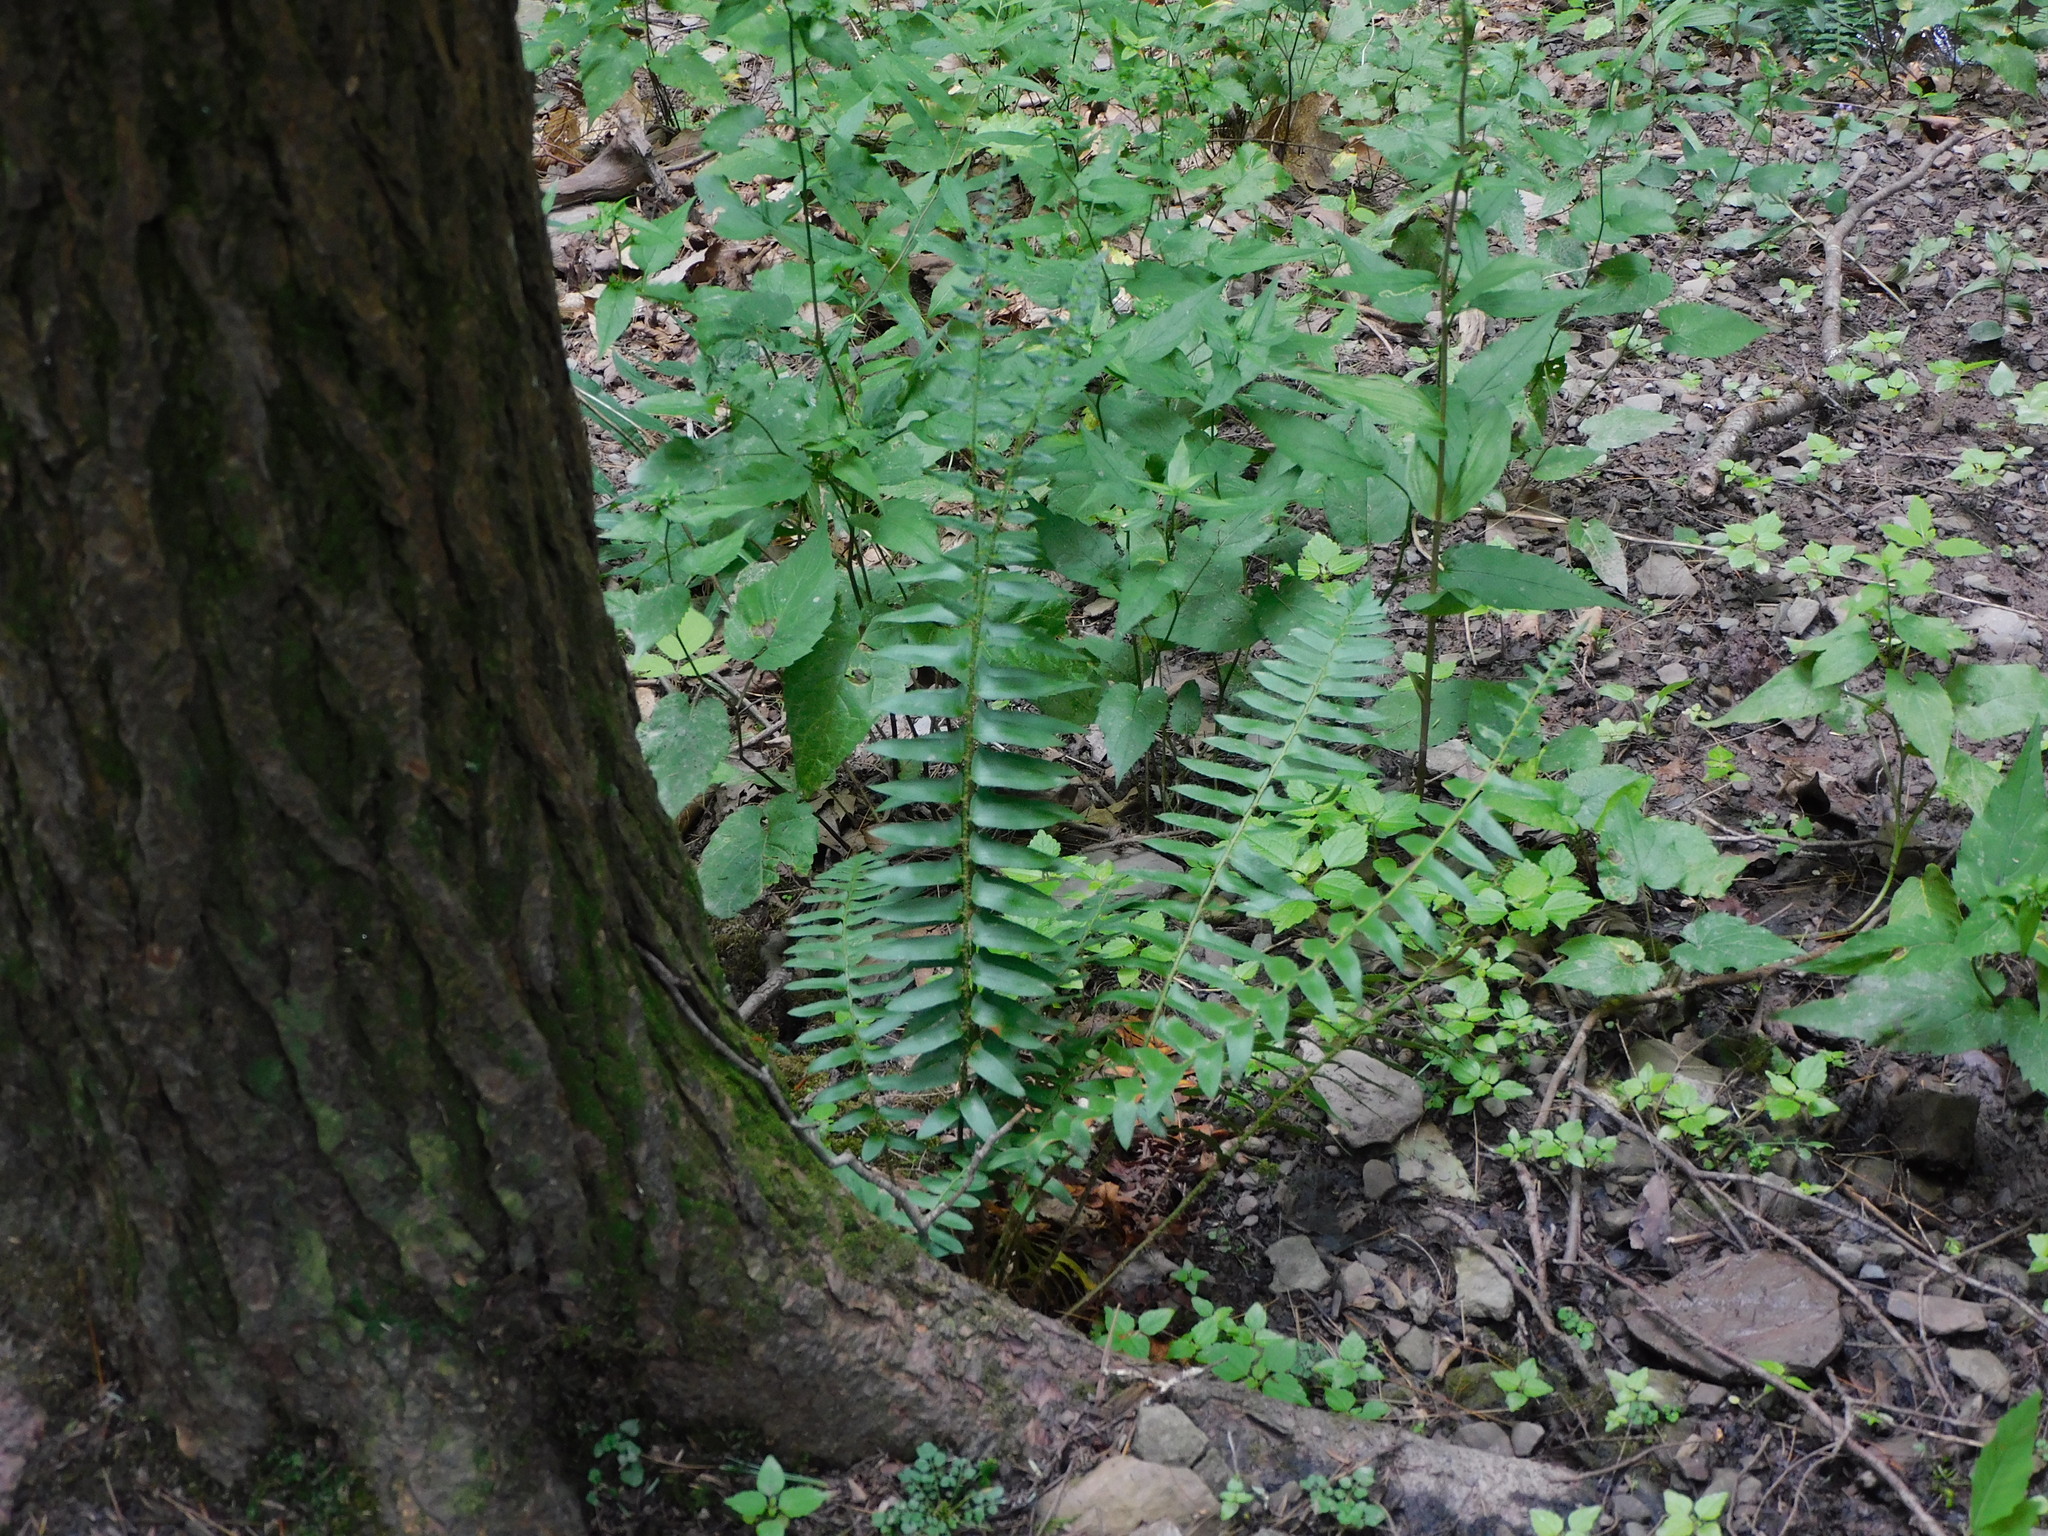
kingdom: Plantae
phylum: Tracheophyta
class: Polypodiopsida
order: Polypodiales
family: Dryopteridaceae
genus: Polystichum
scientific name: Polystichum acrostichoides
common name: Christmas fern
